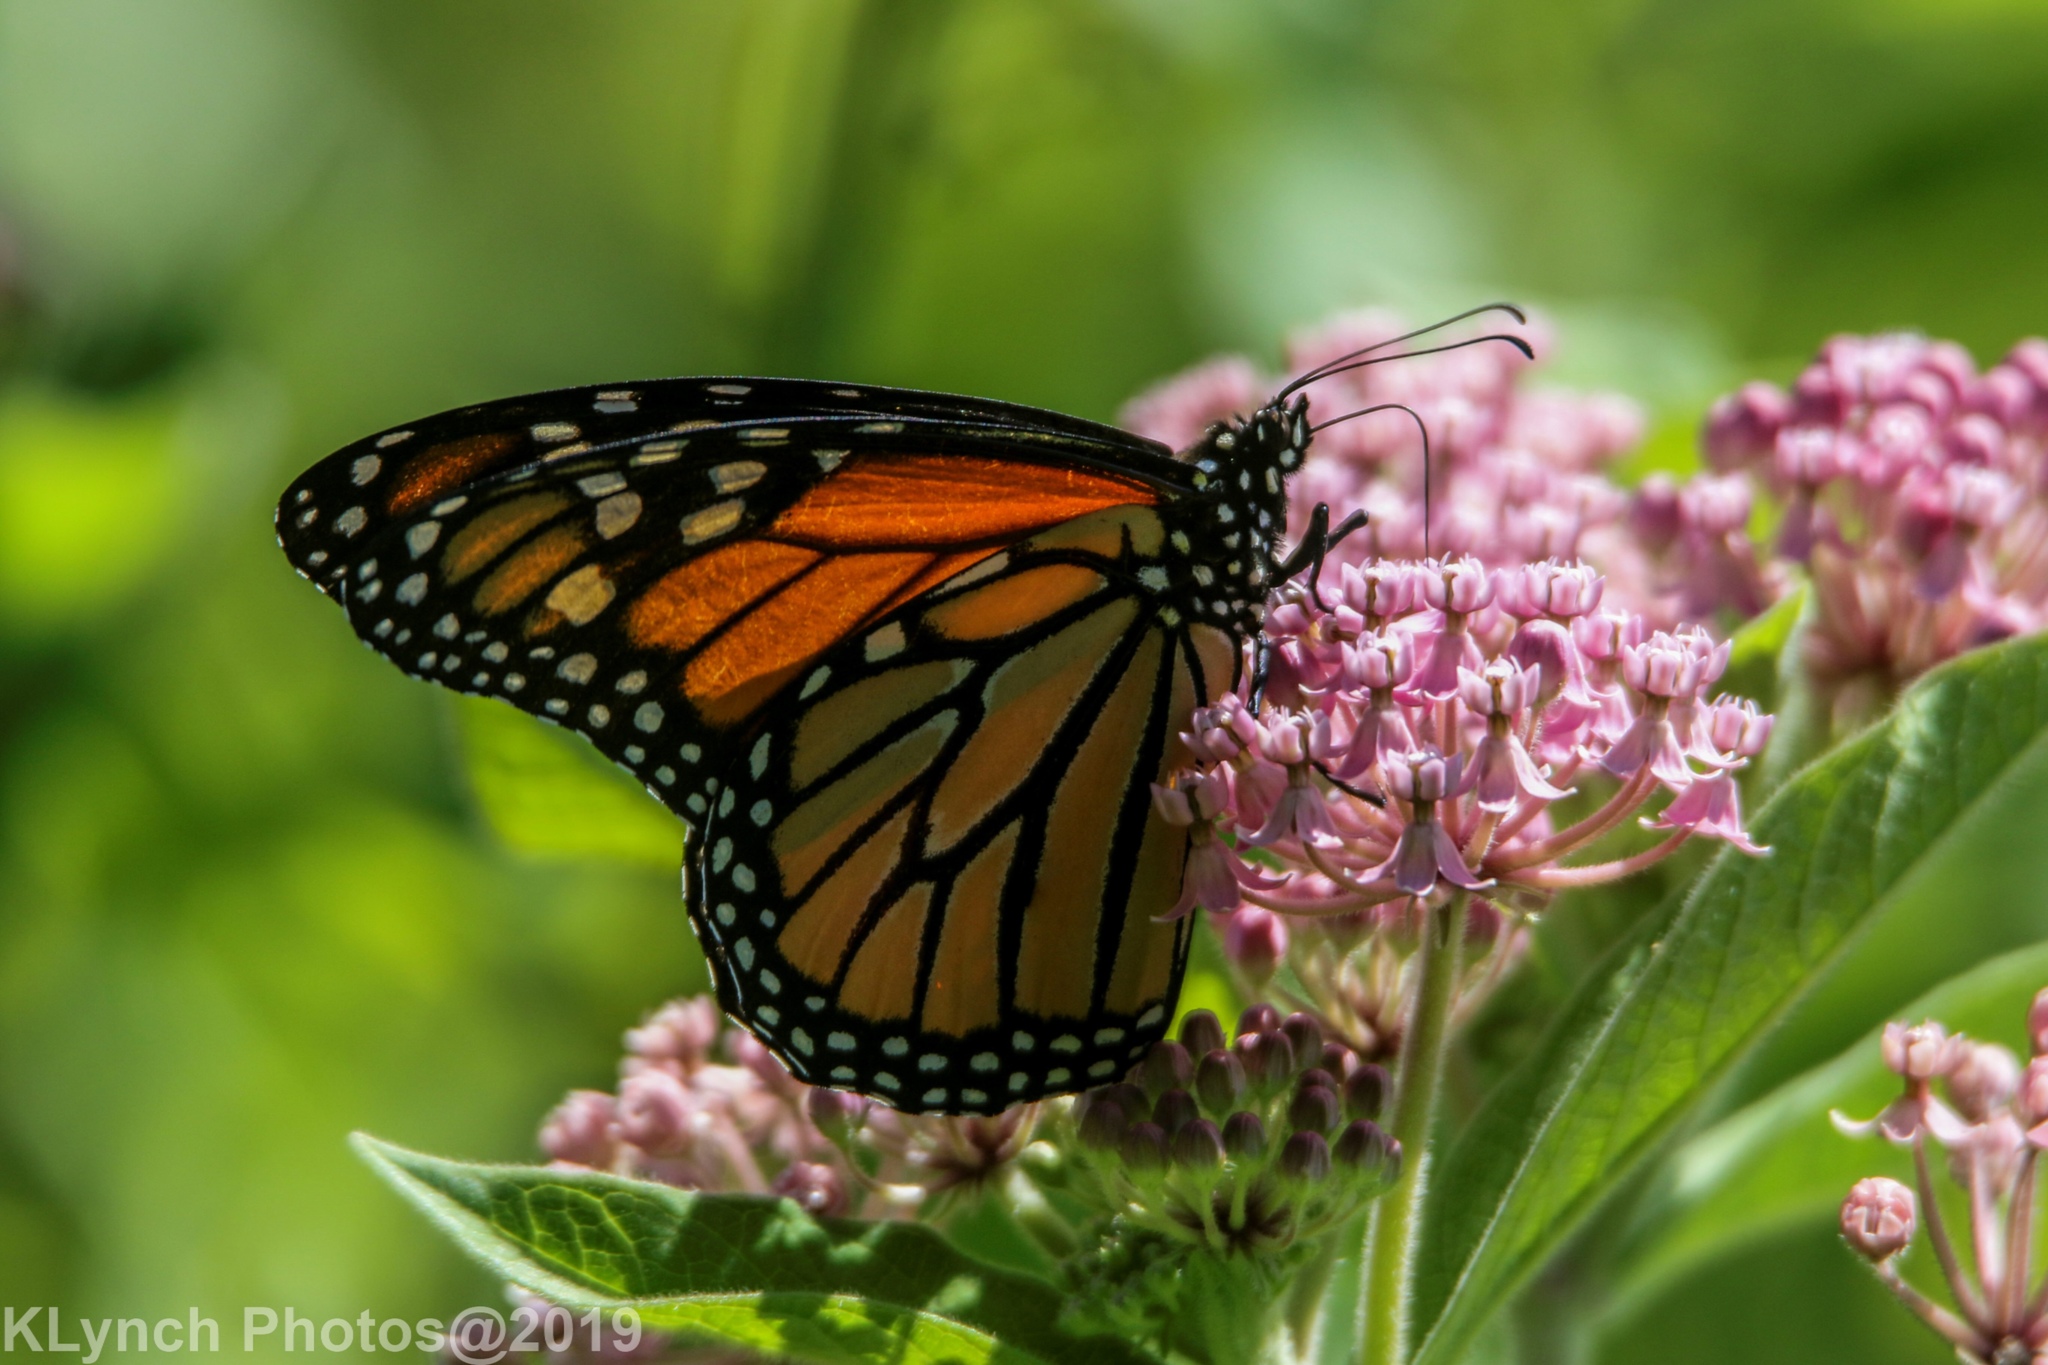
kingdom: Animalia
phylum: Arthropoda
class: Insecta
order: Lepidoptera
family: Nymphalidae
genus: Danaus
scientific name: Danaus plexippus
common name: Monarch
